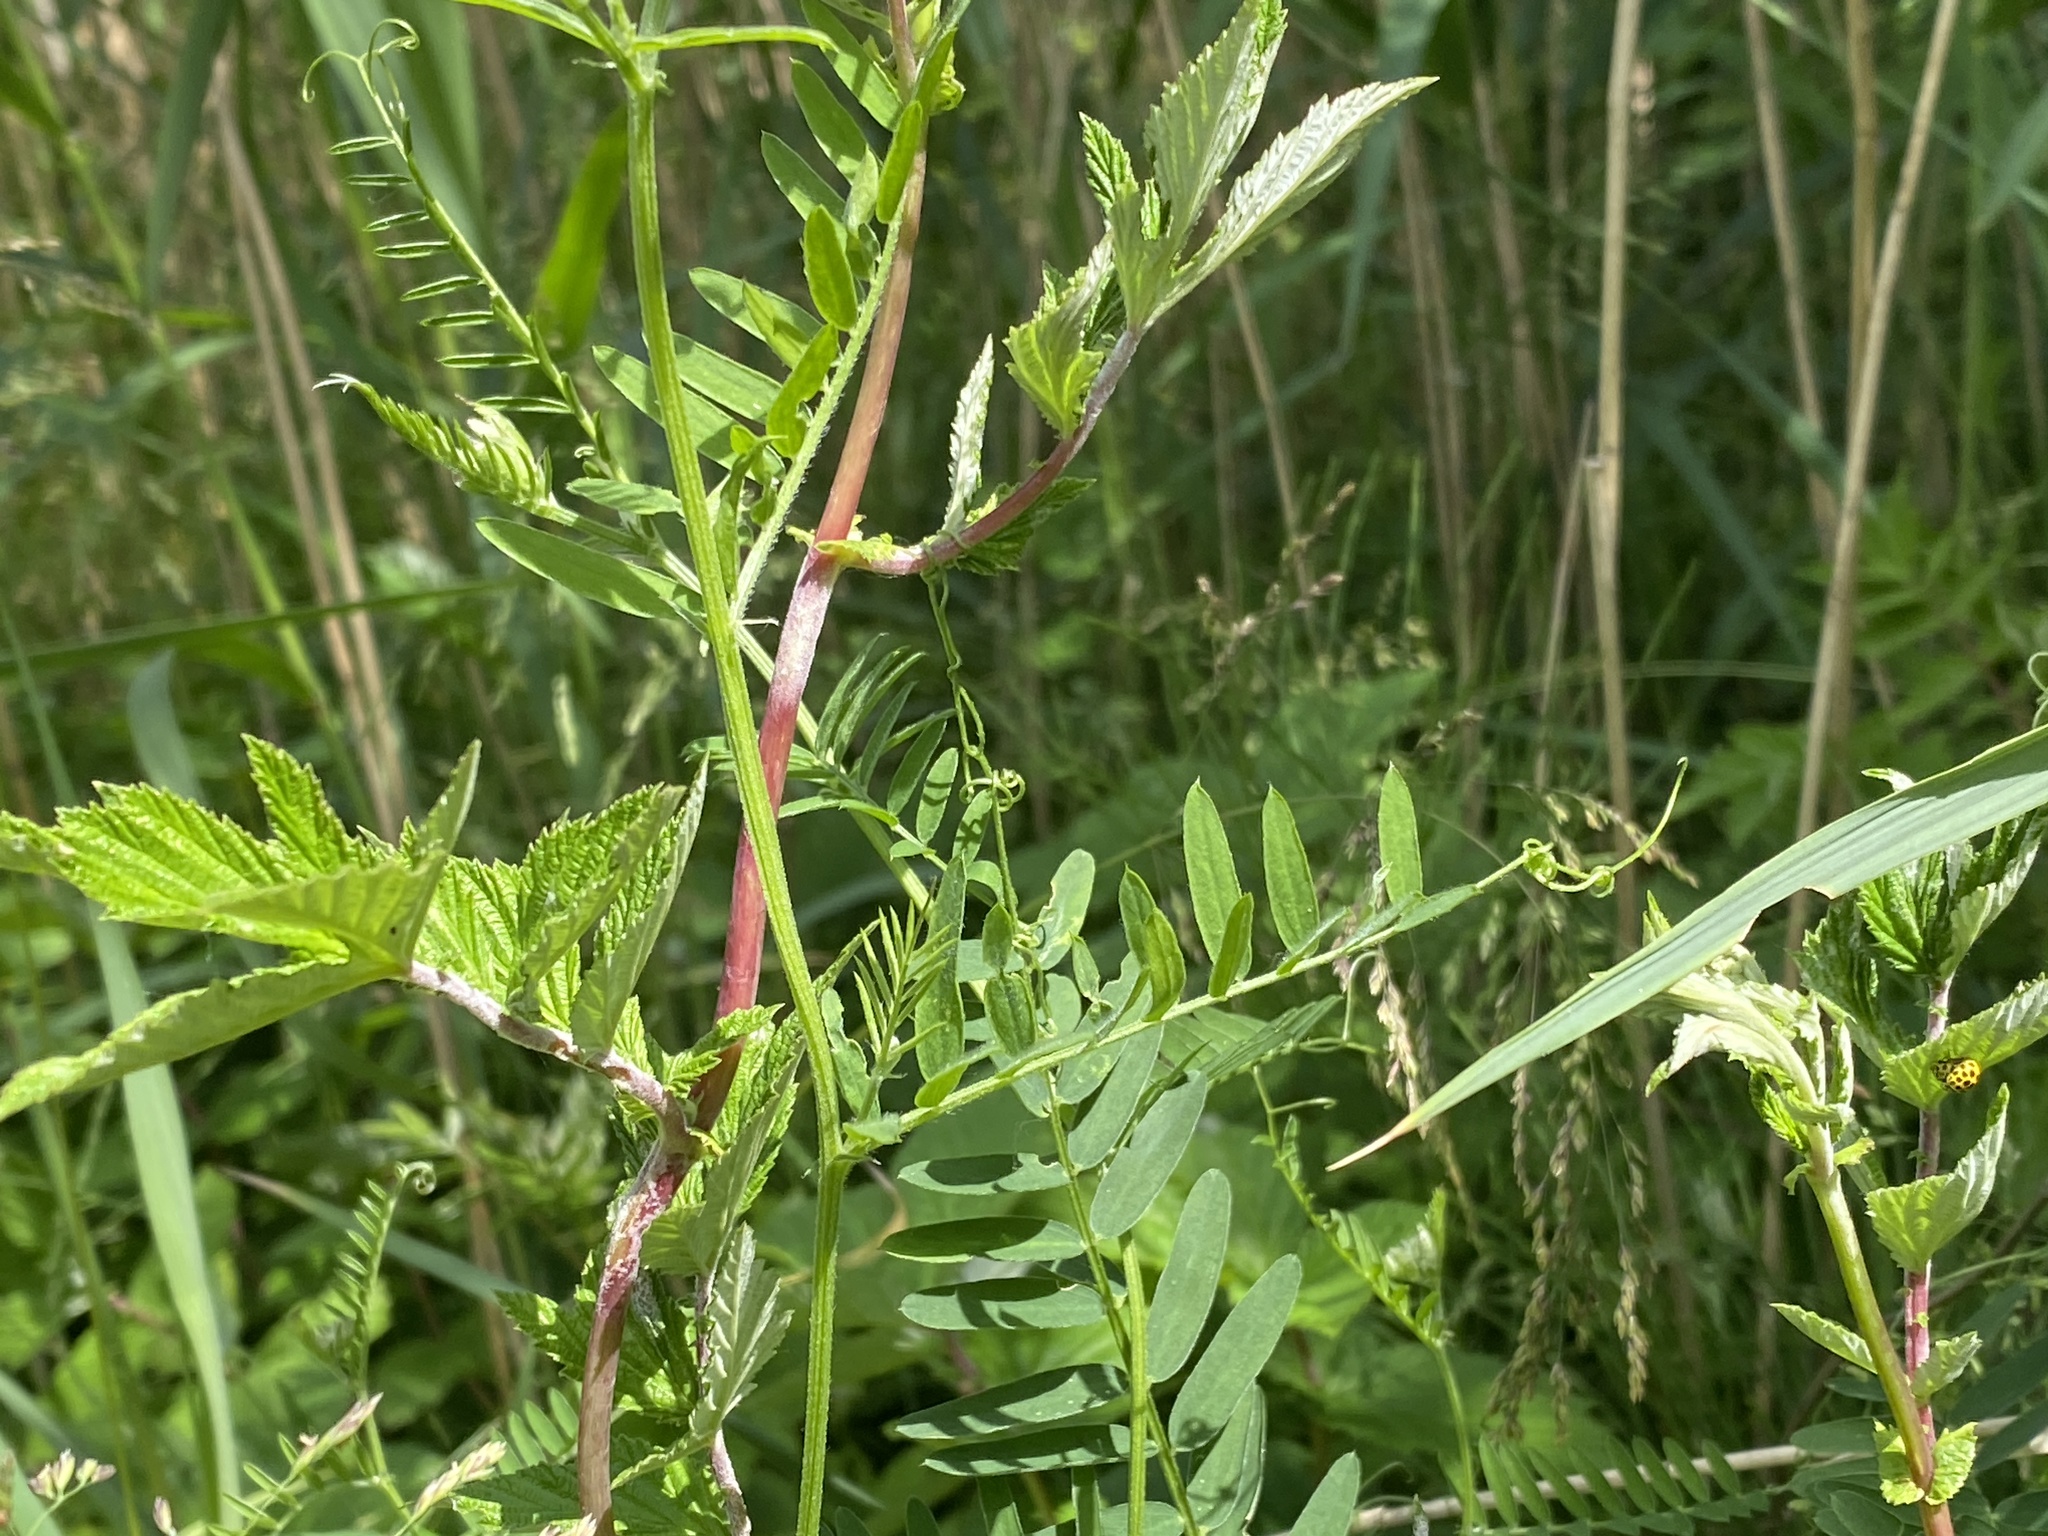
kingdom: Plantae
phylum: Tracheophyta
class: Magnoliopsida
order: Fabales
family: Fabaceae
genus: Vicia
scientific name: Vicia cracca
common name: Bird vetch
